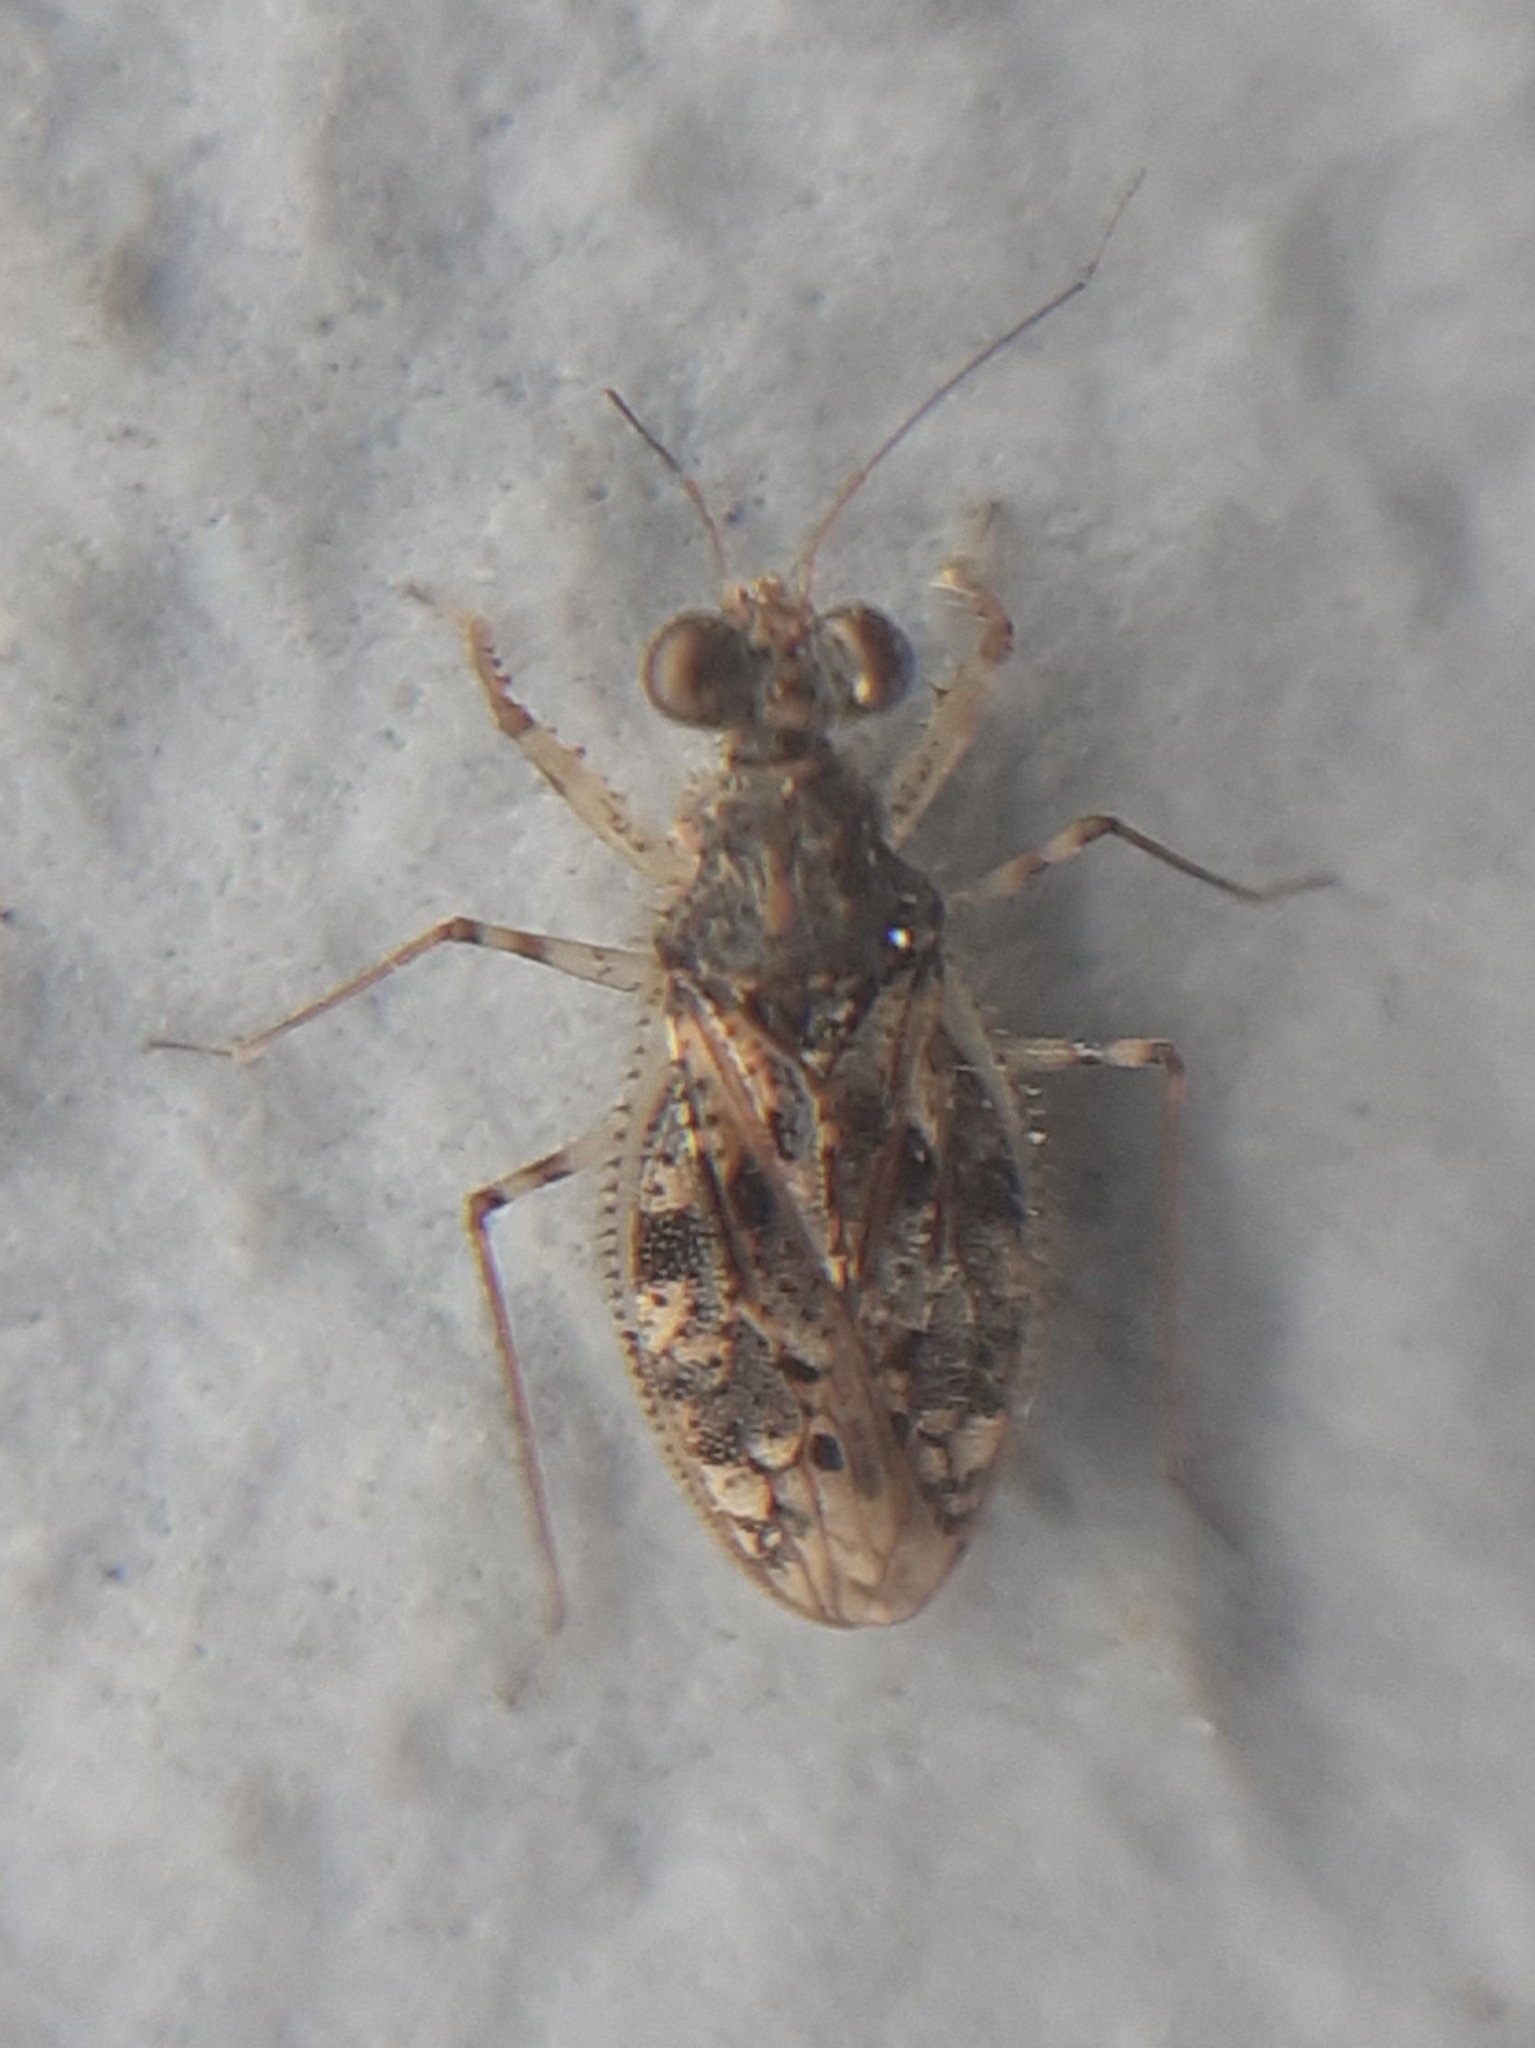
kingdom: Animalia
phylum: Arthropoda
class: Insecta
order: Hemiptera
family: Leptopodidae
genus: Leptopus
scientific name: Leptopus marmoratus
